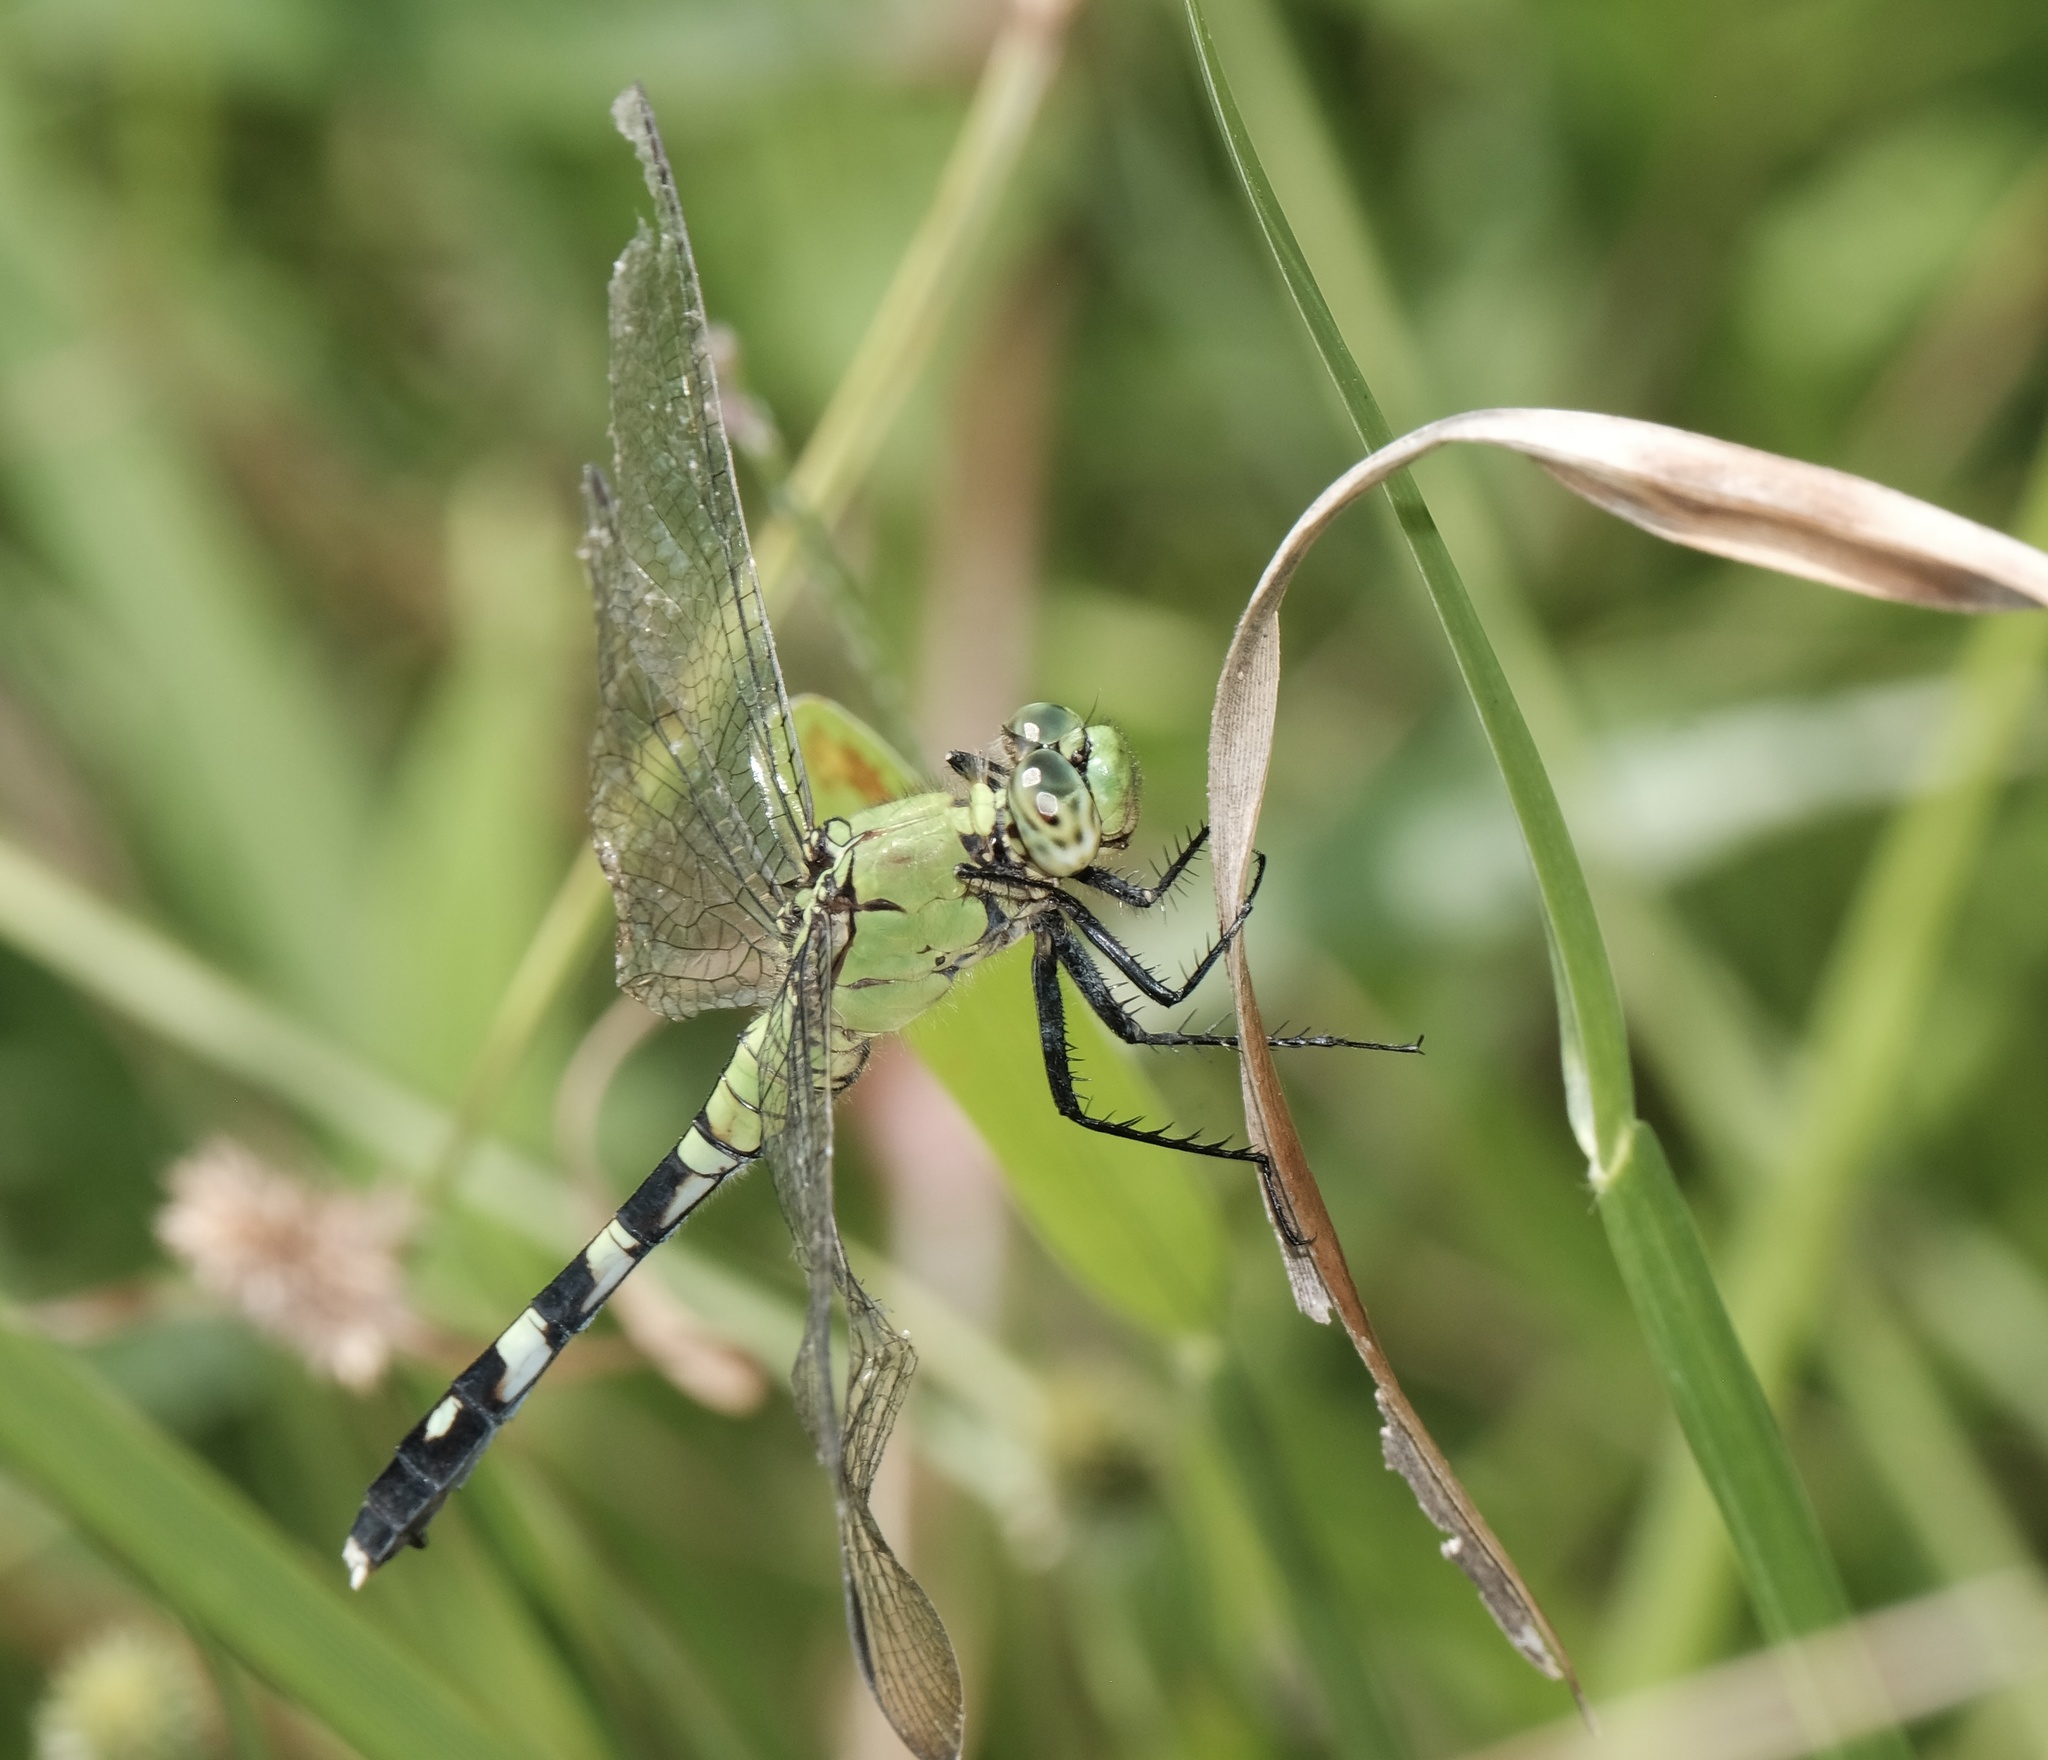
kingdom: Animalia
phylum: Arthropoda
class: Insecta
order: Odonata
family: Libellulidae
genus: Erythemis
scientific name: Erythemis simplicicollis
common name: Eastern pondhawk
